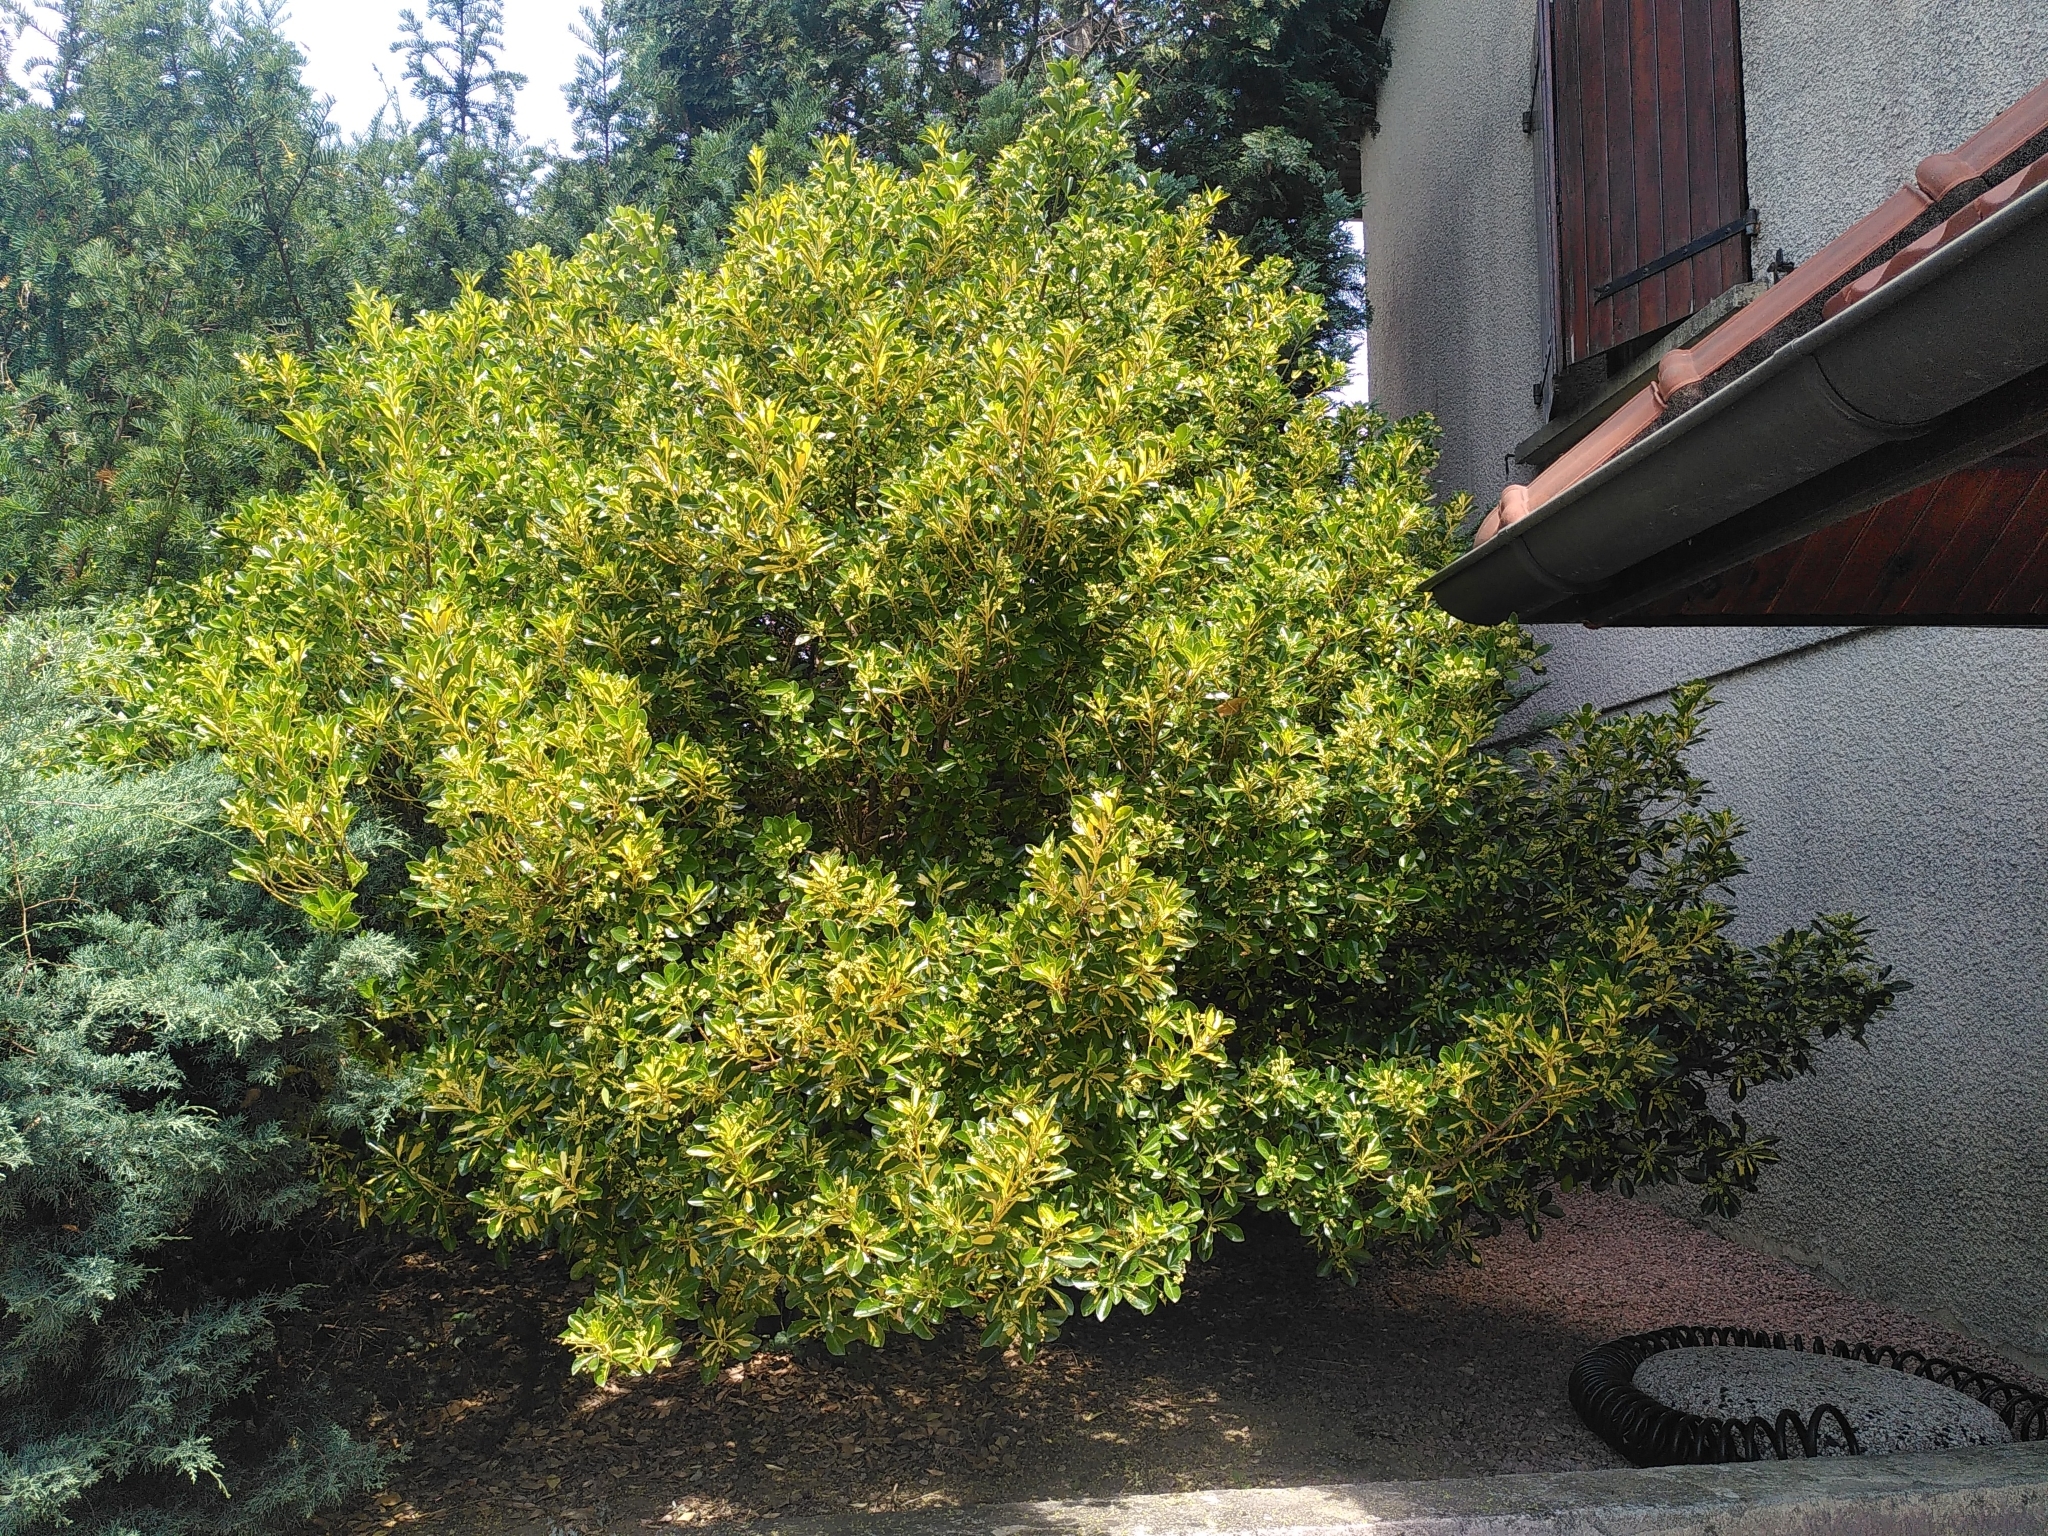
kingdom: Plantae
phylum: Tracheophyta
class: Magnoliopsida
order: Celastrales
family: Celastraceae
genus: Euonymus
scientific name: Euonymus japonicus
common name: Japanese spindletree
